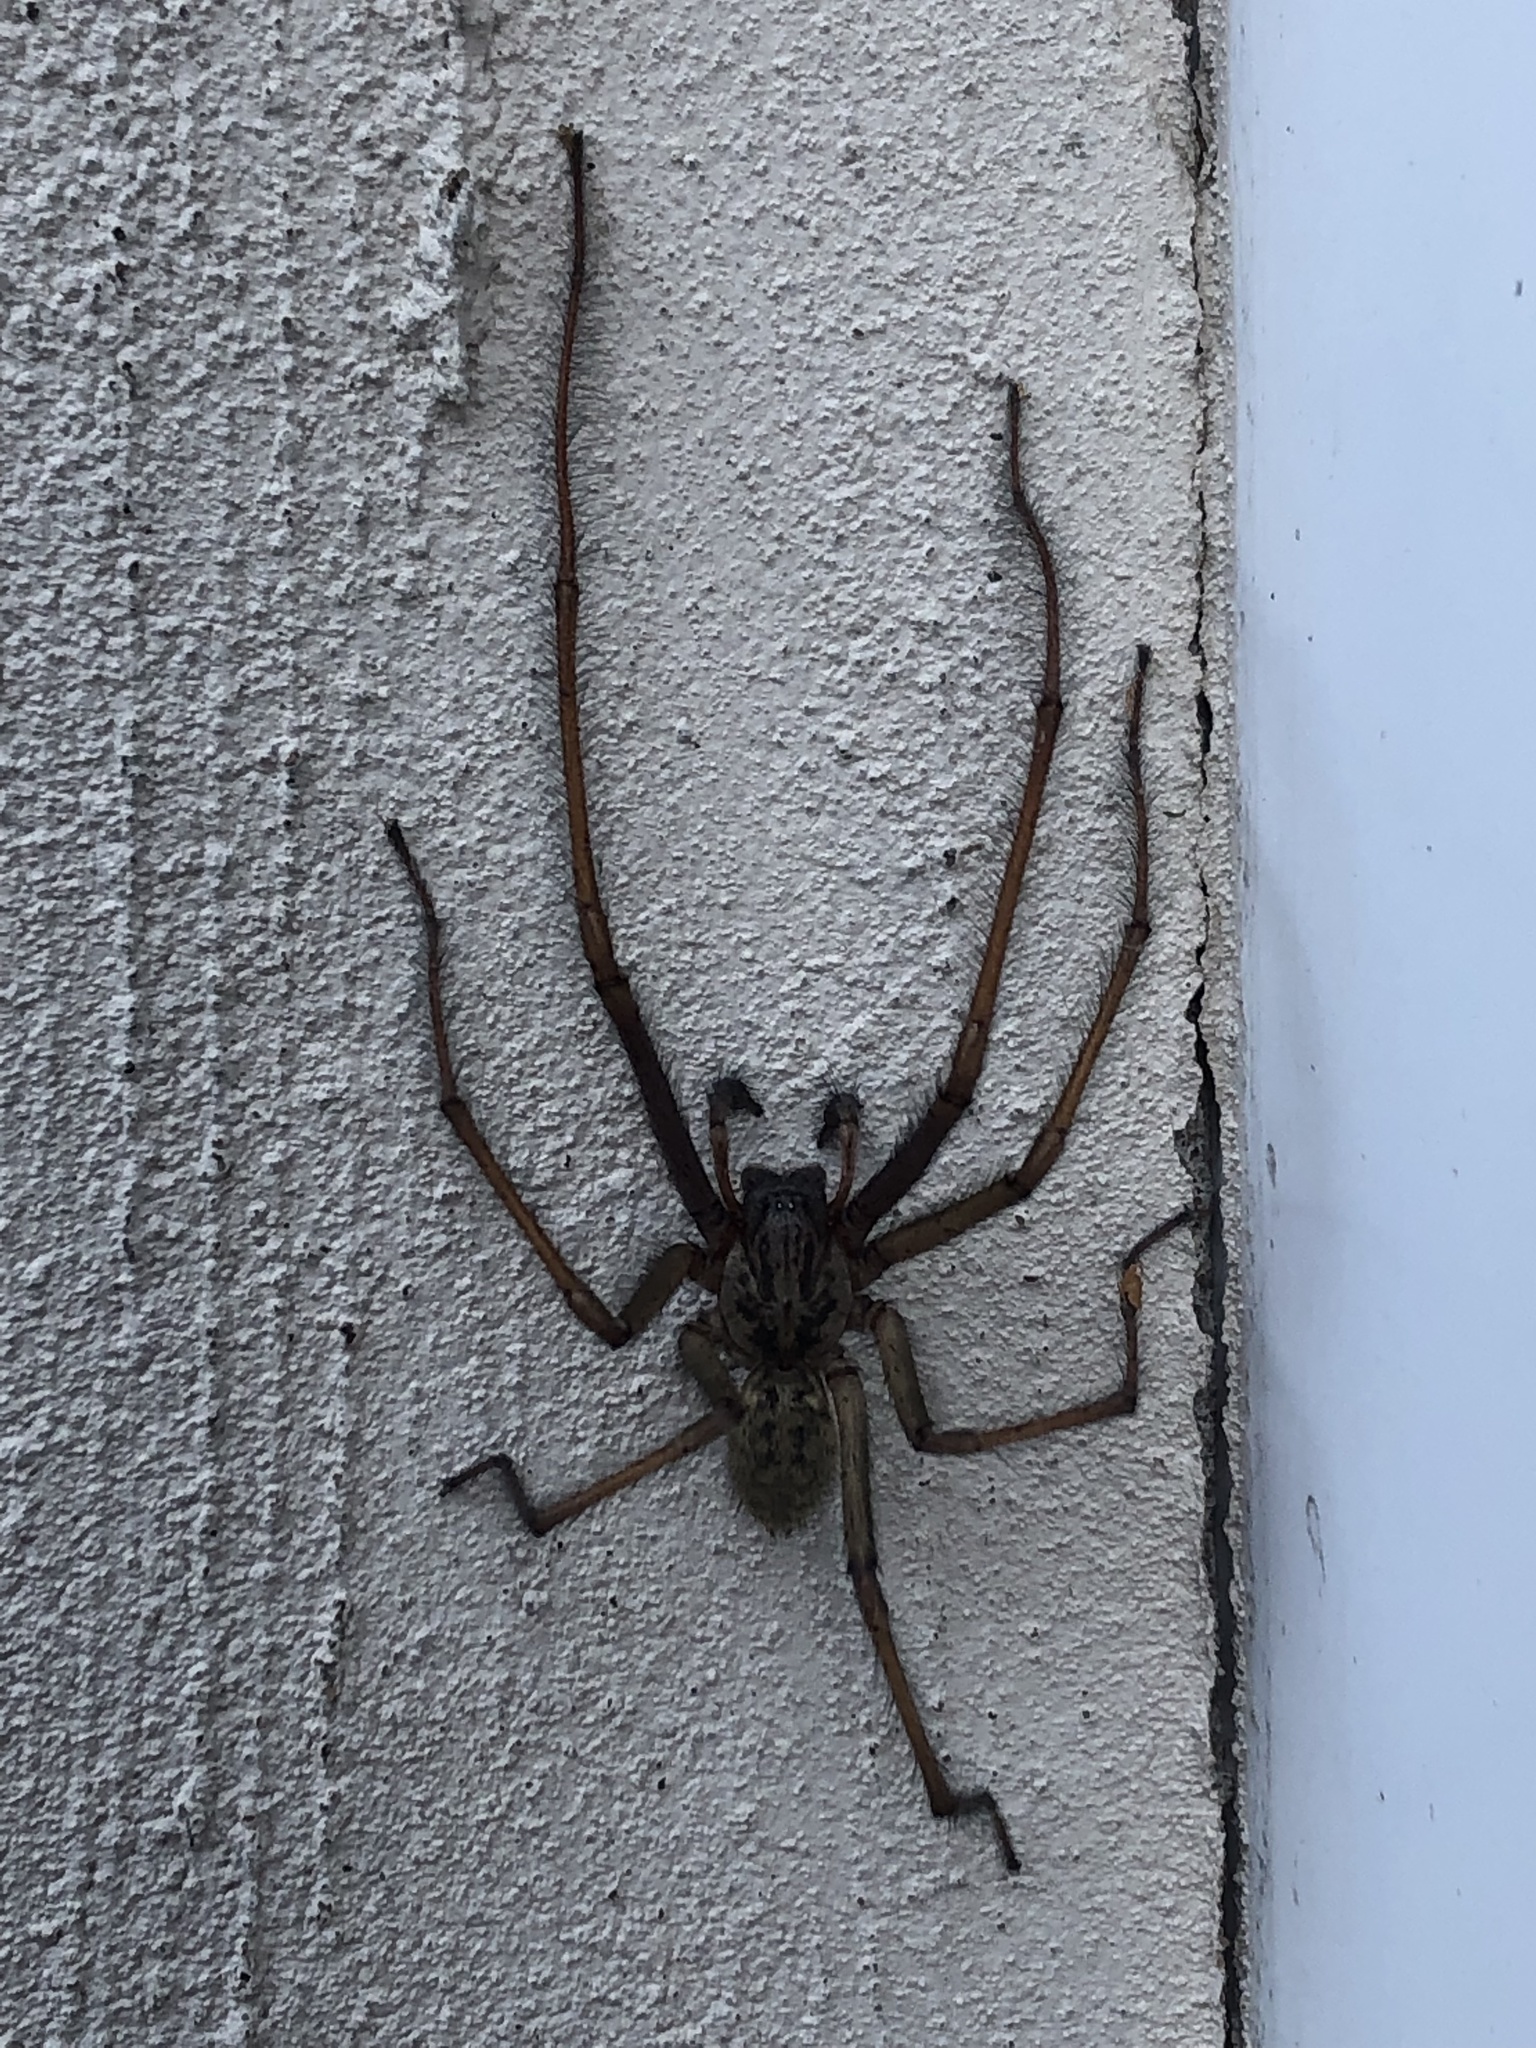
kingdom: Animalia
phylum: Arthropoda
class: Arachnida
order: Araneae
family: Agelenidae
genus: Eratigena
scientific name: Eratigena
